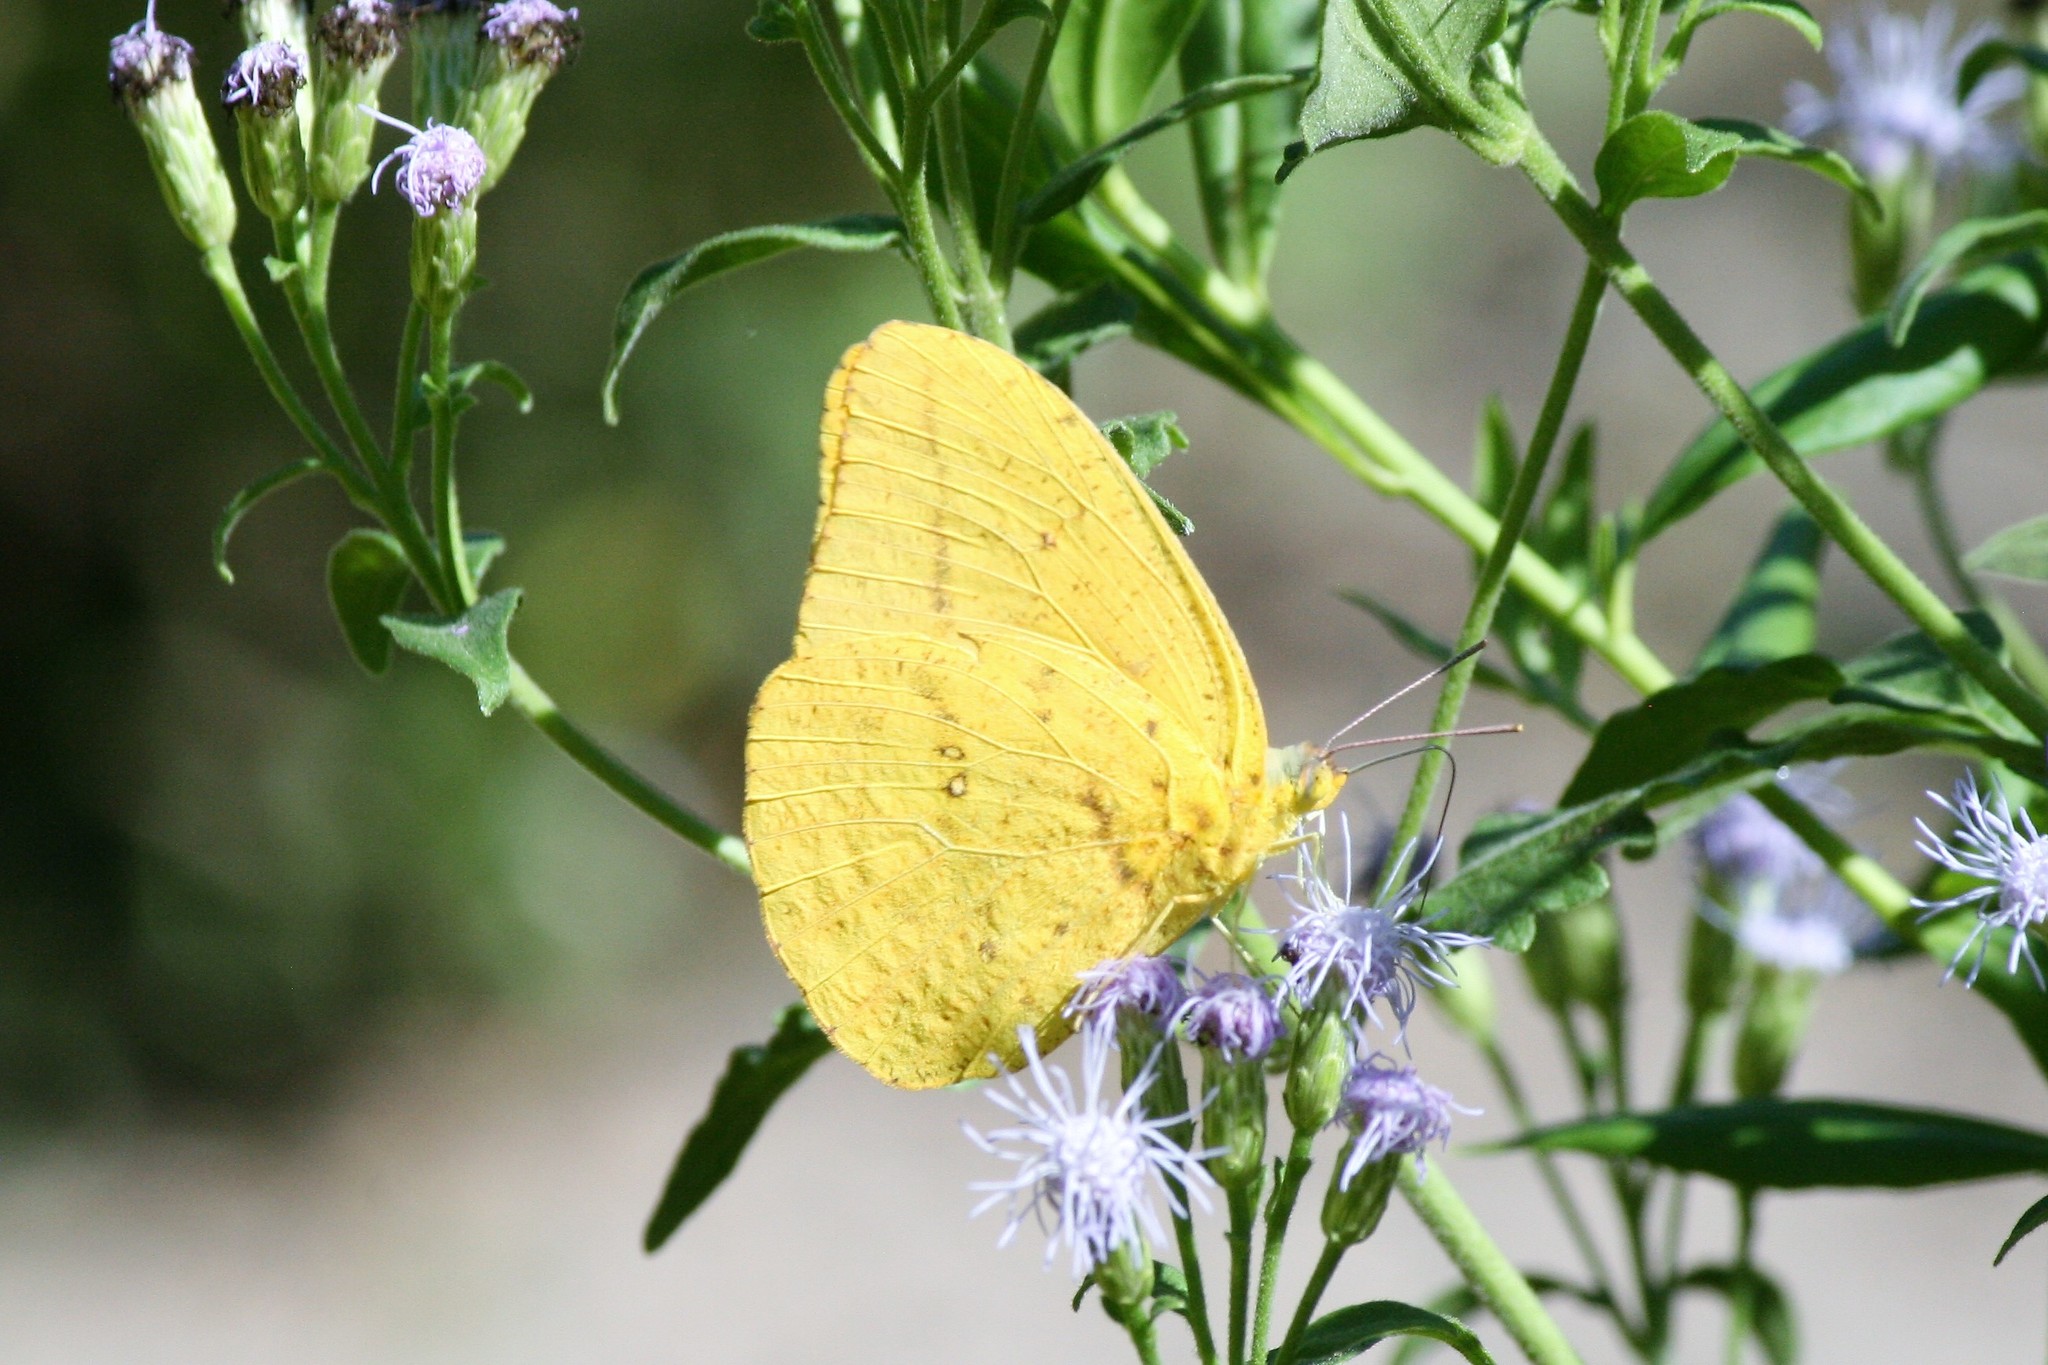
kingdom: Animalia
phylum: Arthropoda
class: Insecta
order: Lepidoptera
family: Pieridae
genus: Phoebis
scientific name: Phoebis agarithe
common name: Large orange sulphur
